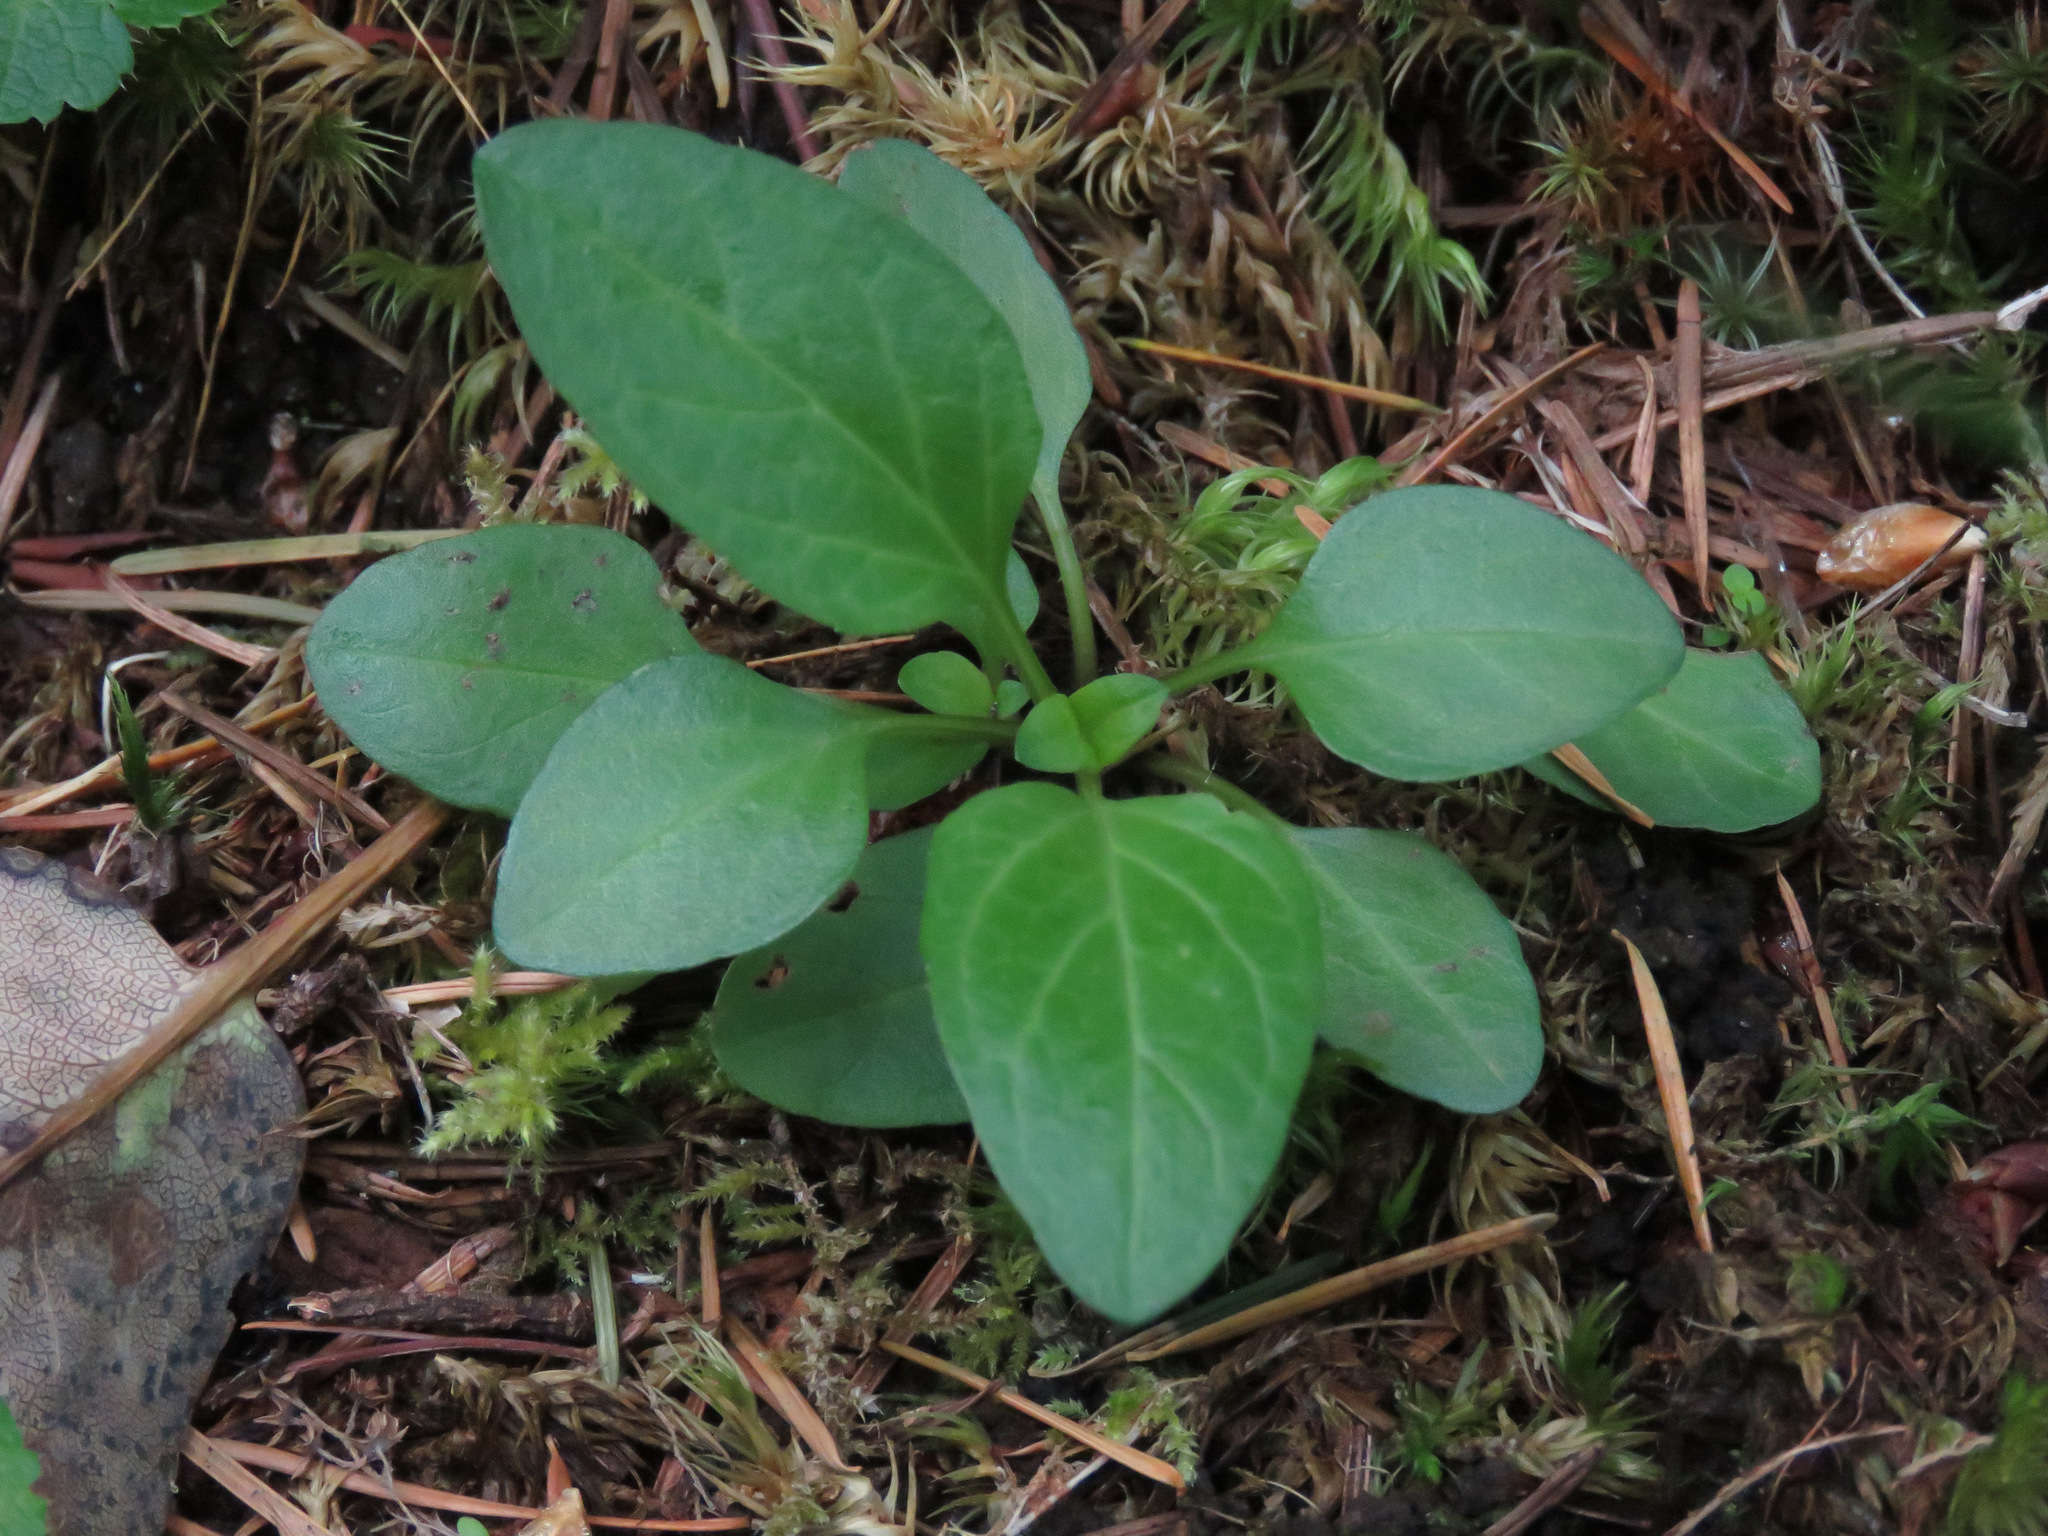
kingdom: Plantae
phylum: Tracheophyta
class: Magnoliopsida
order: Lamiales
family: Lamiaceae
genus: Prunella
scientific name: Prunella vulgaris
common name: Heal-all
